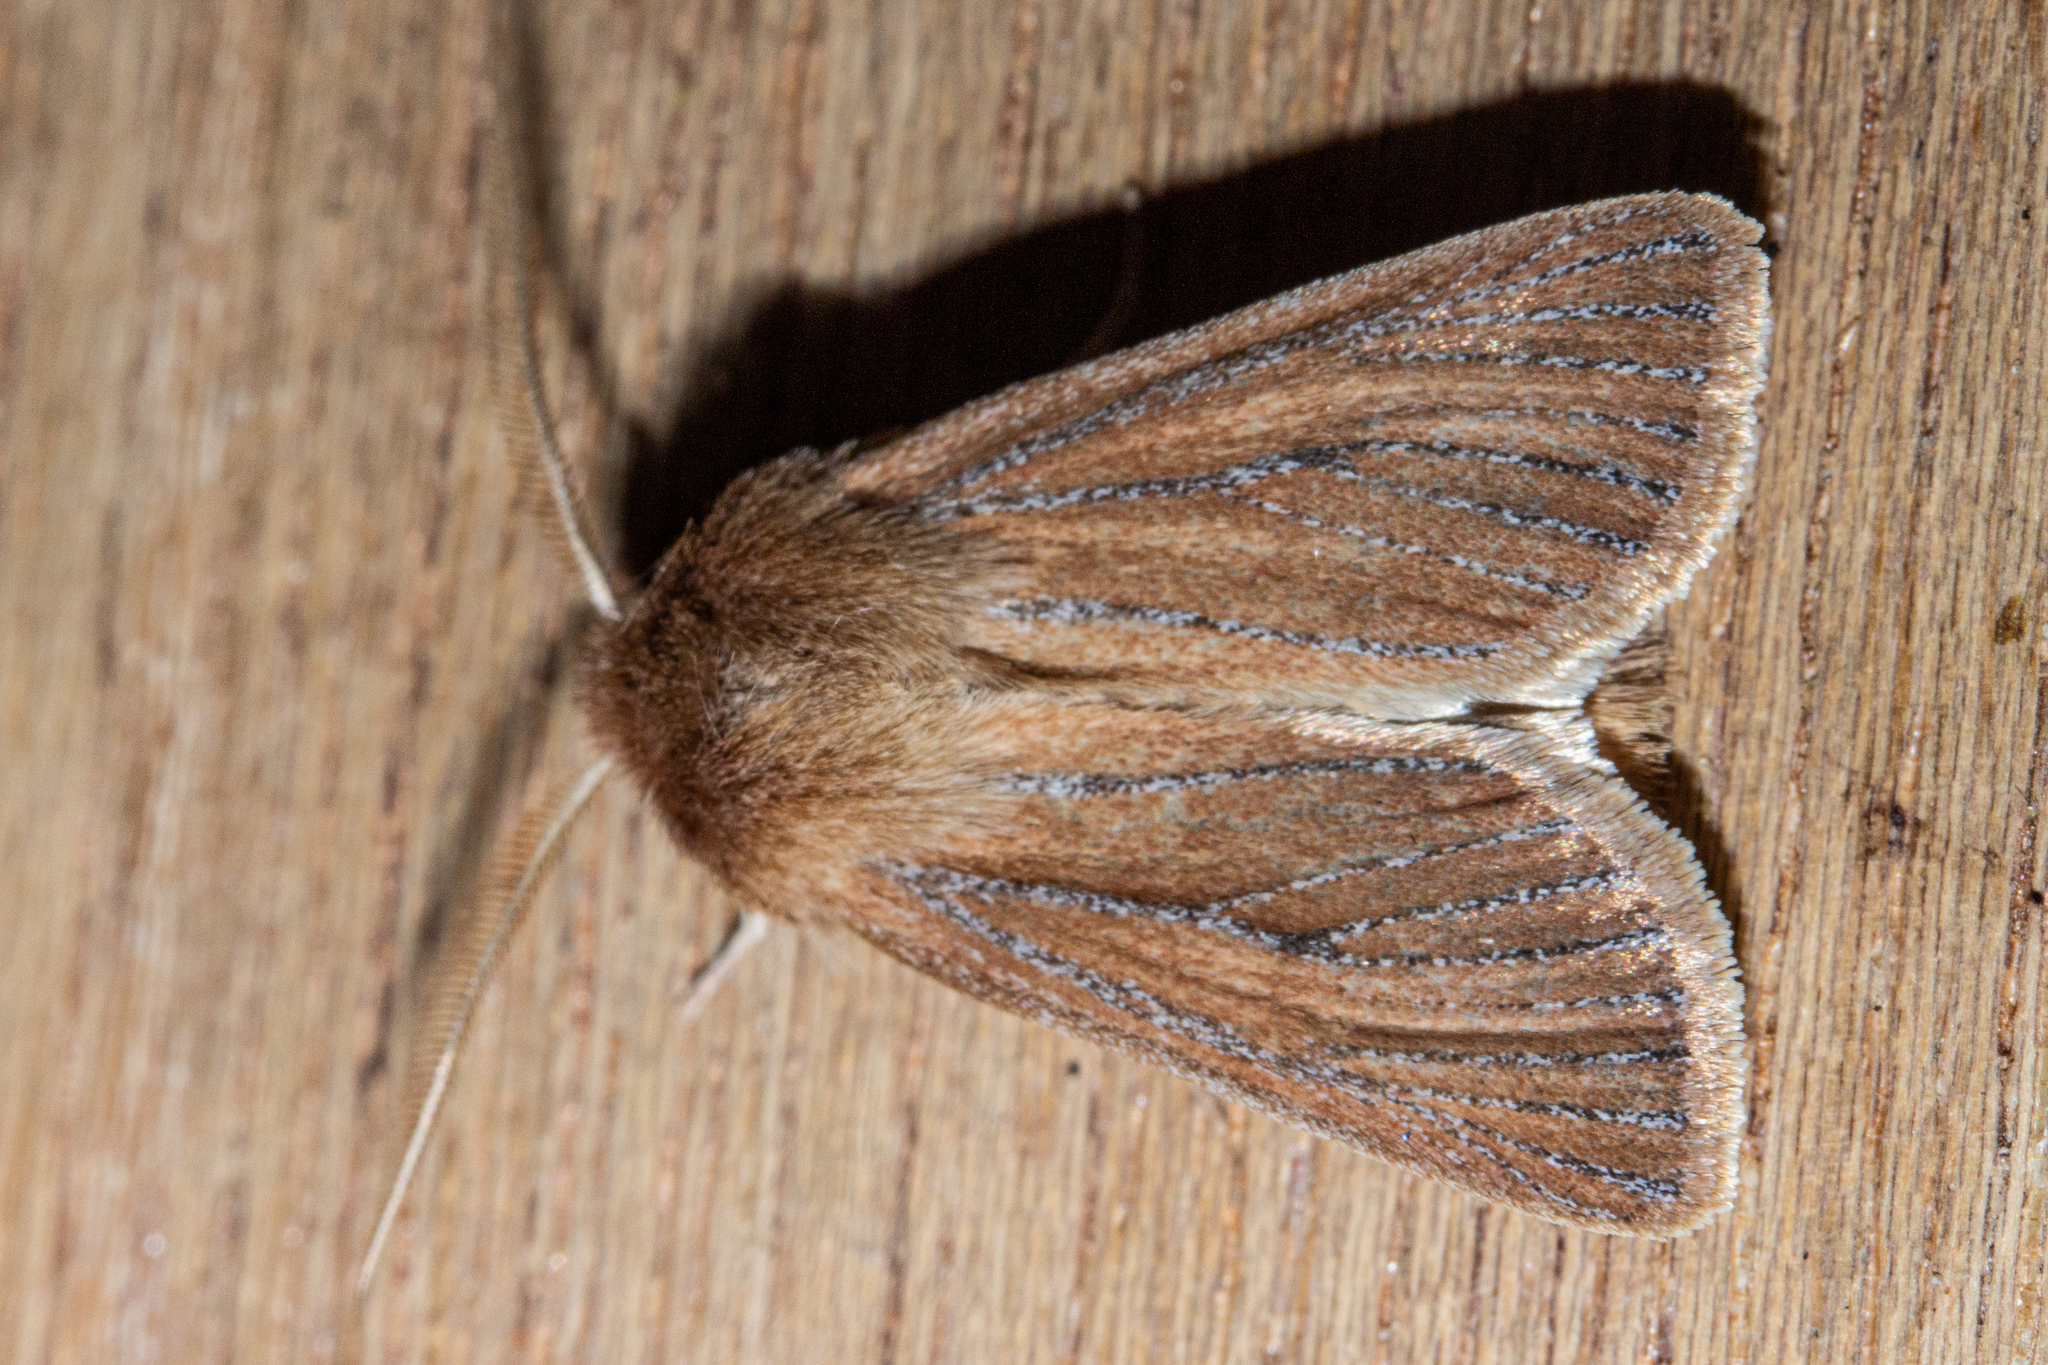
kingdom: Animalia
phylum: Arthropoda
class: Insecta
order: Lepidoptera
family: Noctuidae
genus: Ichneutica
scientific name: Ichneutica
